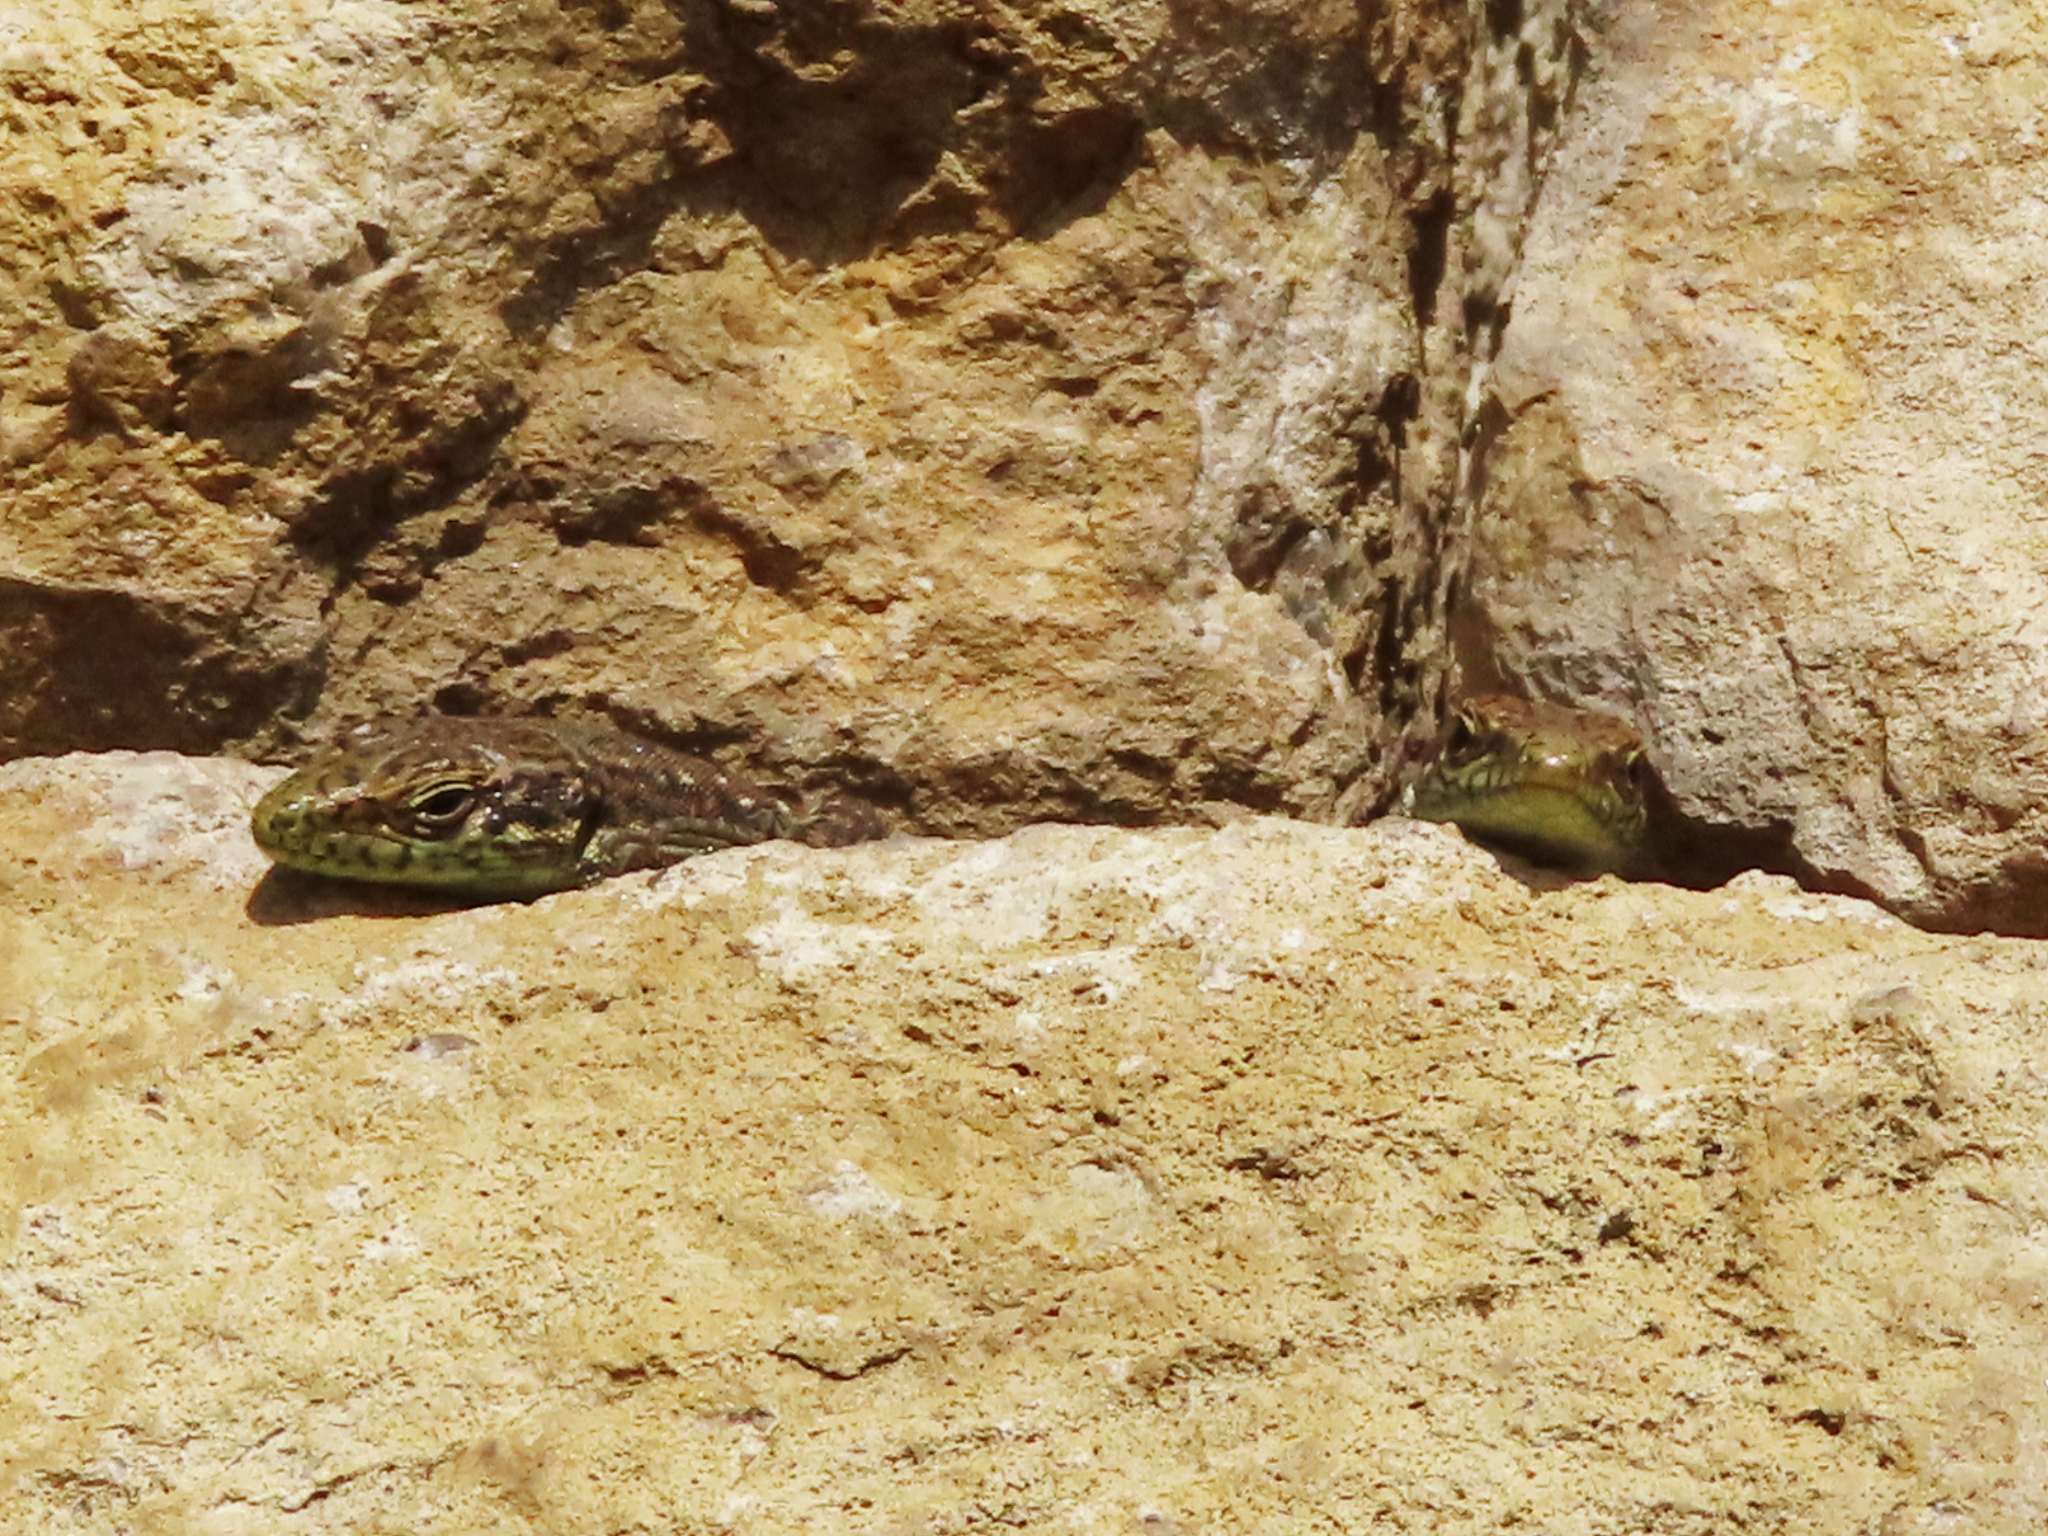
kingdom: Animalia
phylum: Chordata
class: Squamata
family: Lacertidae
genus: Darevskia
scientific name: Darevskia rudis
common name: Spiny-tailed lizard
